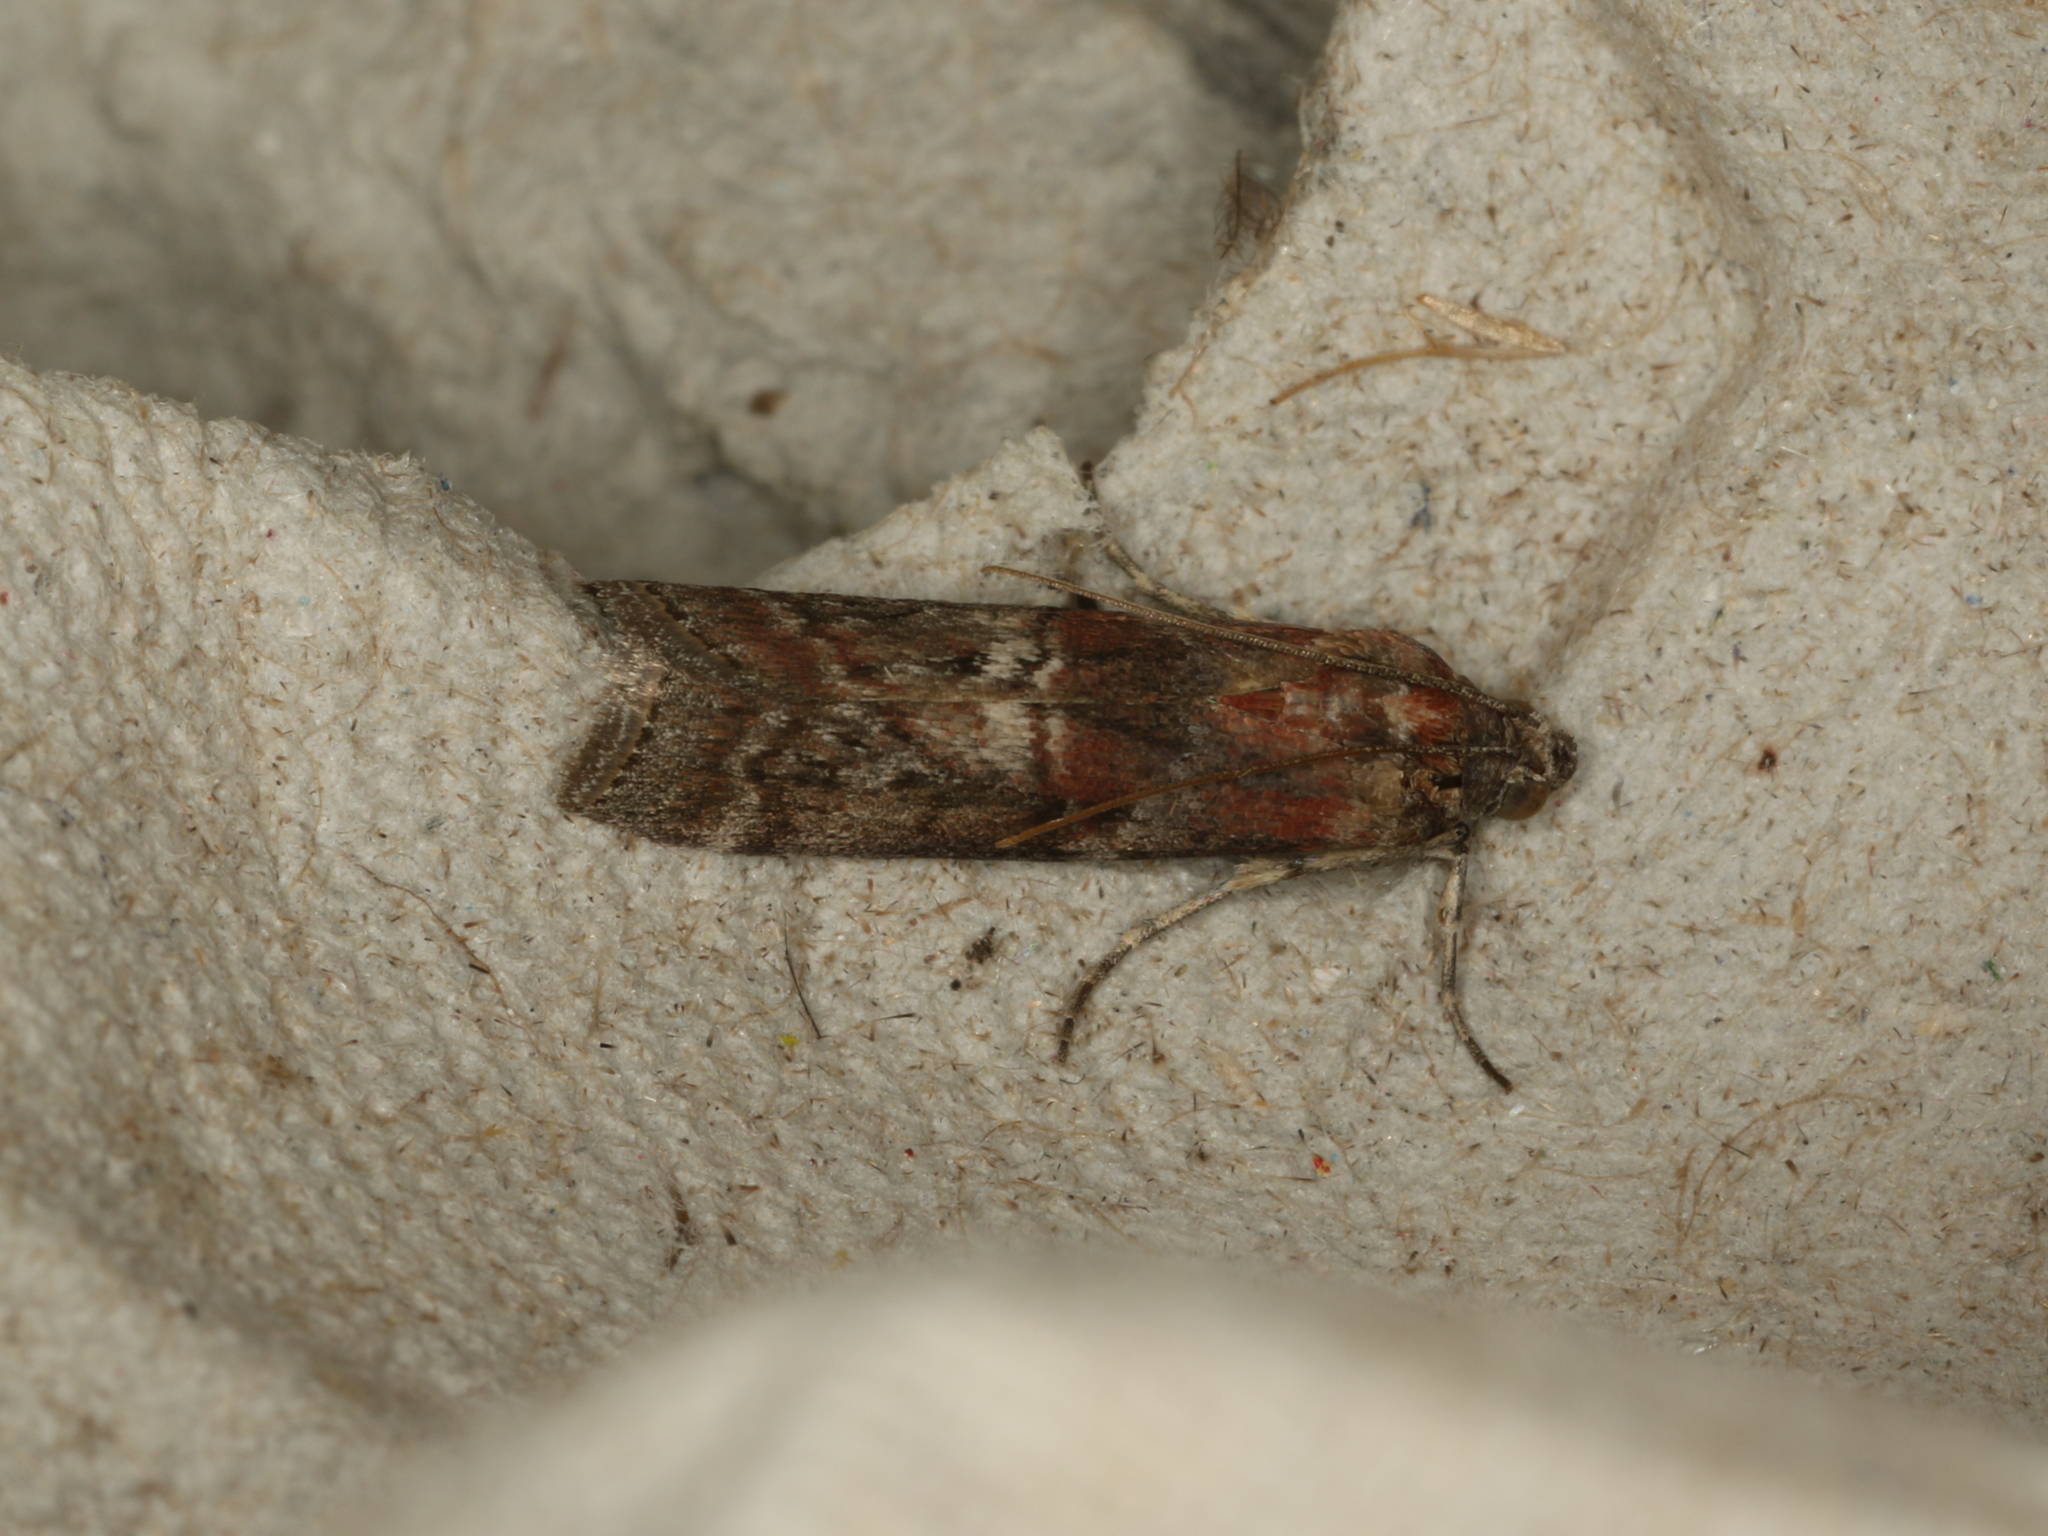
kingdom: Animalia
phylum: Arthropoda
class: Insecta
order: Lepidoptera
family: Pyralidae
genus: Phycita
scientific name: Phycita roborella
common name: Dotted oak knot-horn
